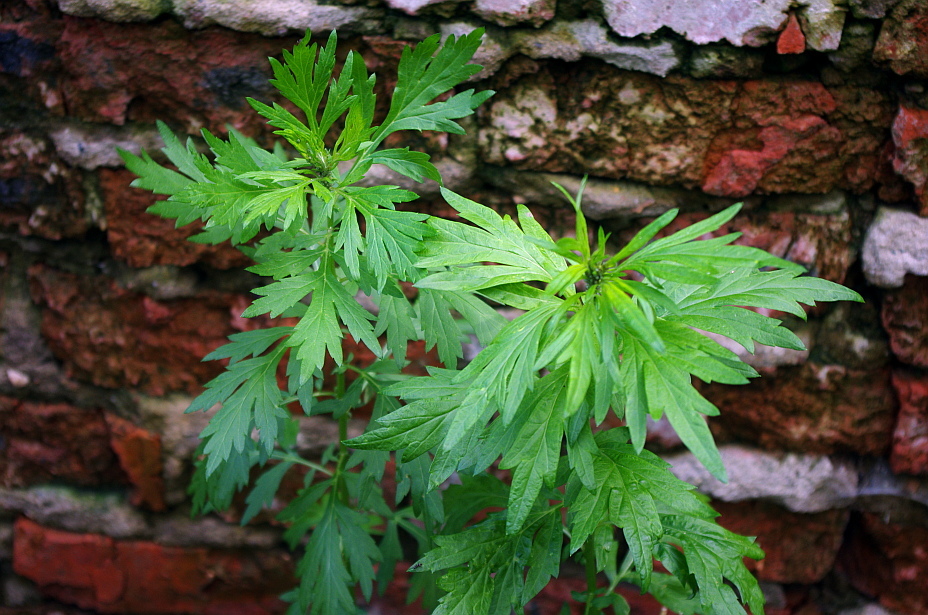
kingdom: Plantae
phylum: Tracheophyta
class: Magnoliopsida
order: Asterales
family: Asteraceae
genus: Artemisia
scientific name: Artemisia vulgaris
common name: Mugwort
